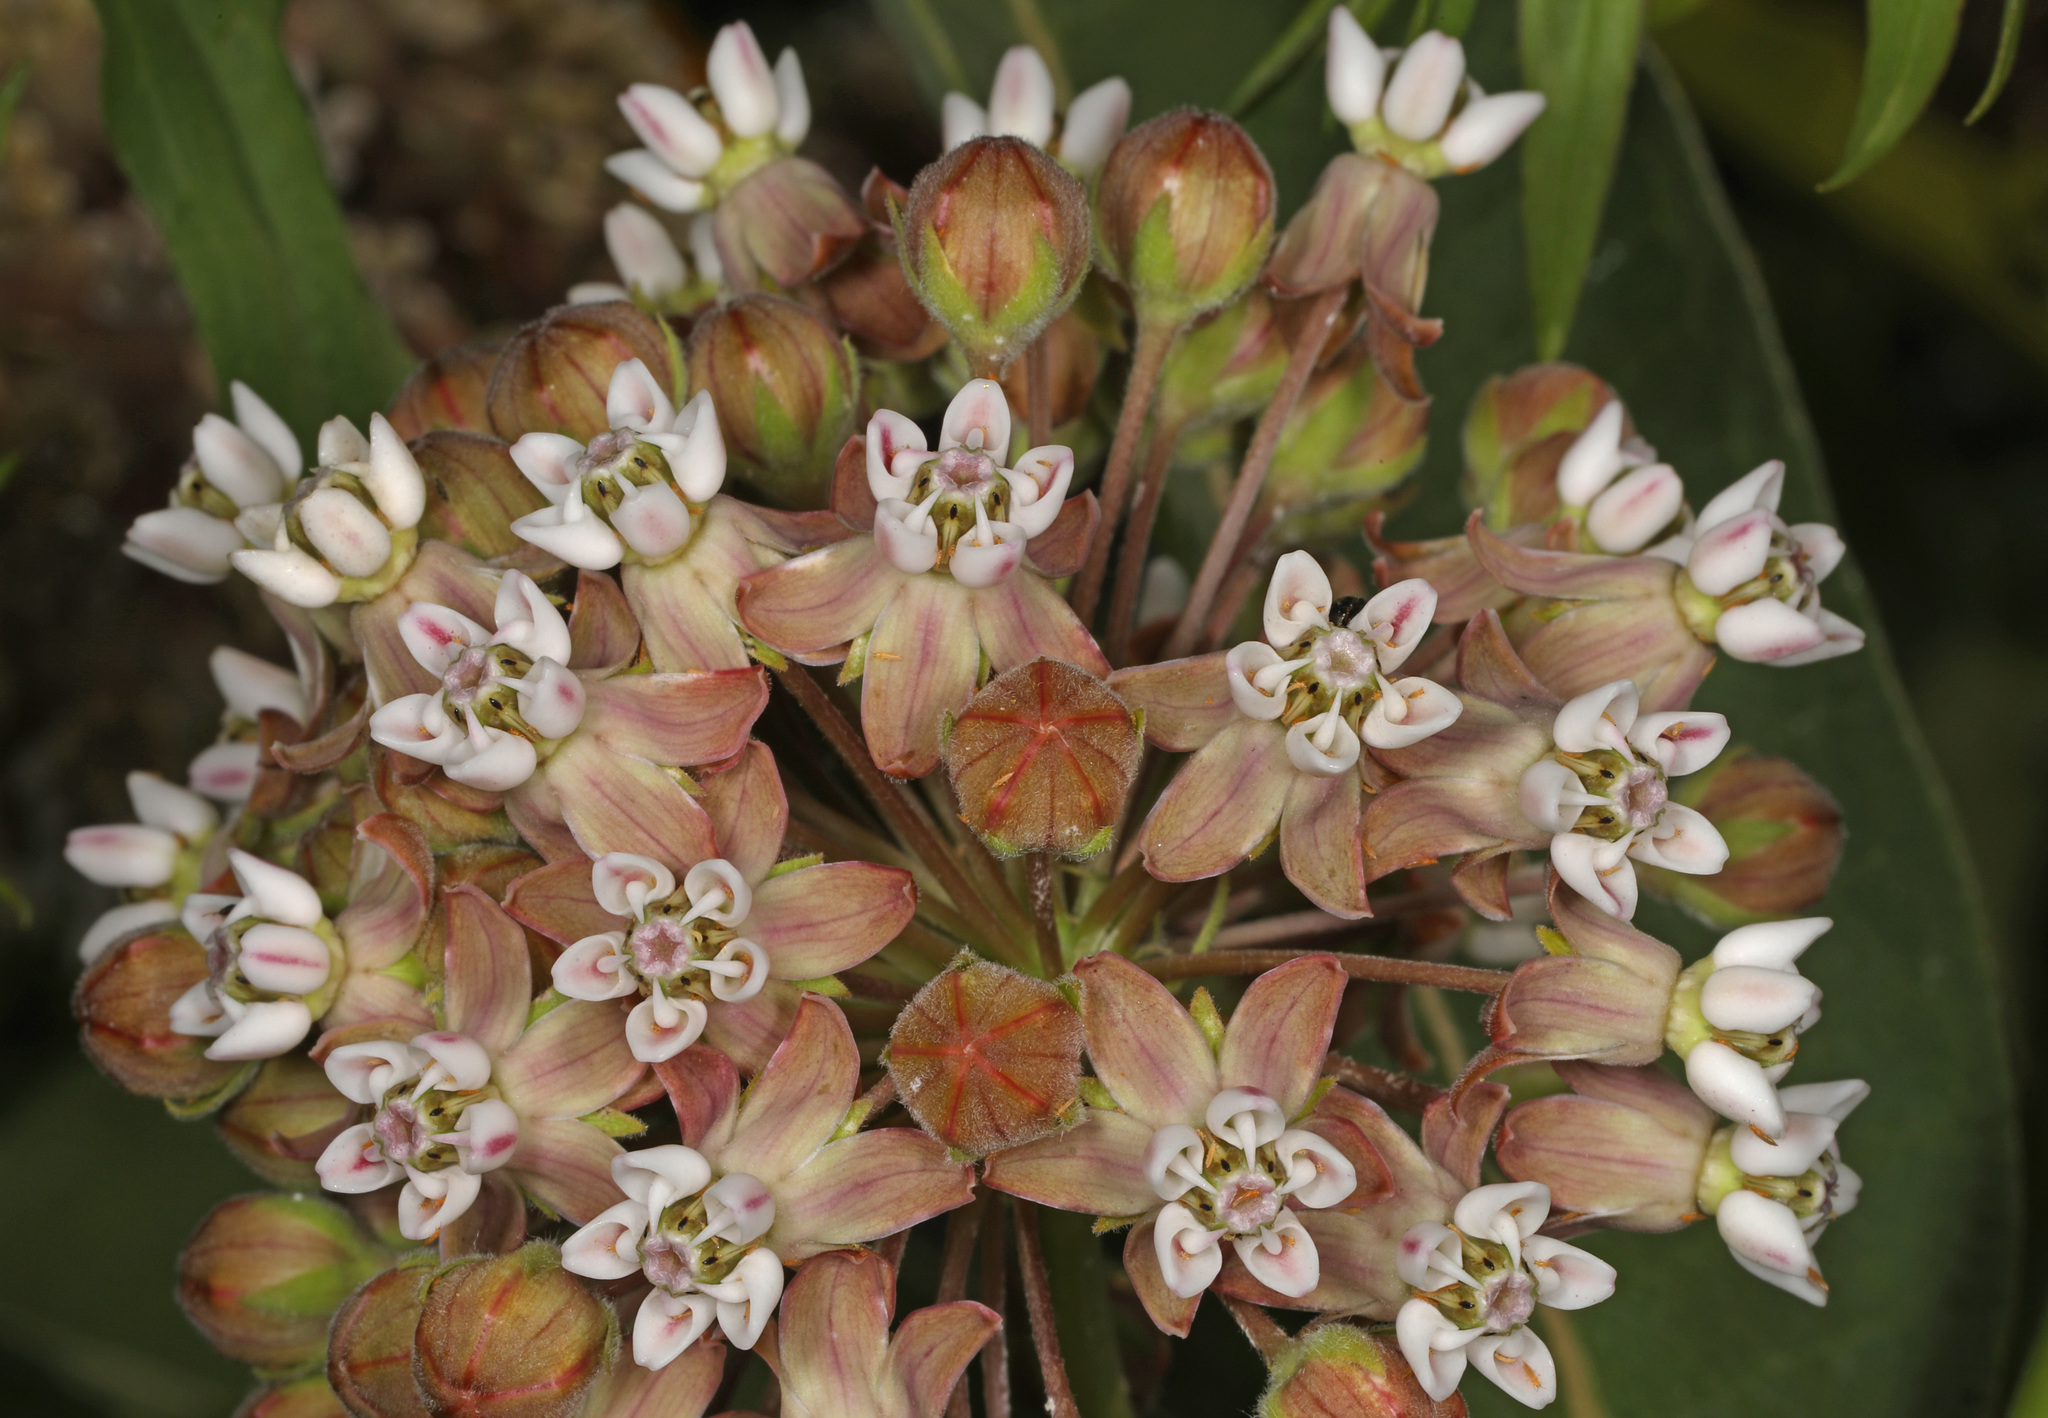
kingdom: Plantae
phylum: Tracheophyta
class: Magnoliopsida
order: Gentianales
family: Apocynaceae
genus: Asclepias
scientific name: Asclepias syriaca
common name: Common milkweed
